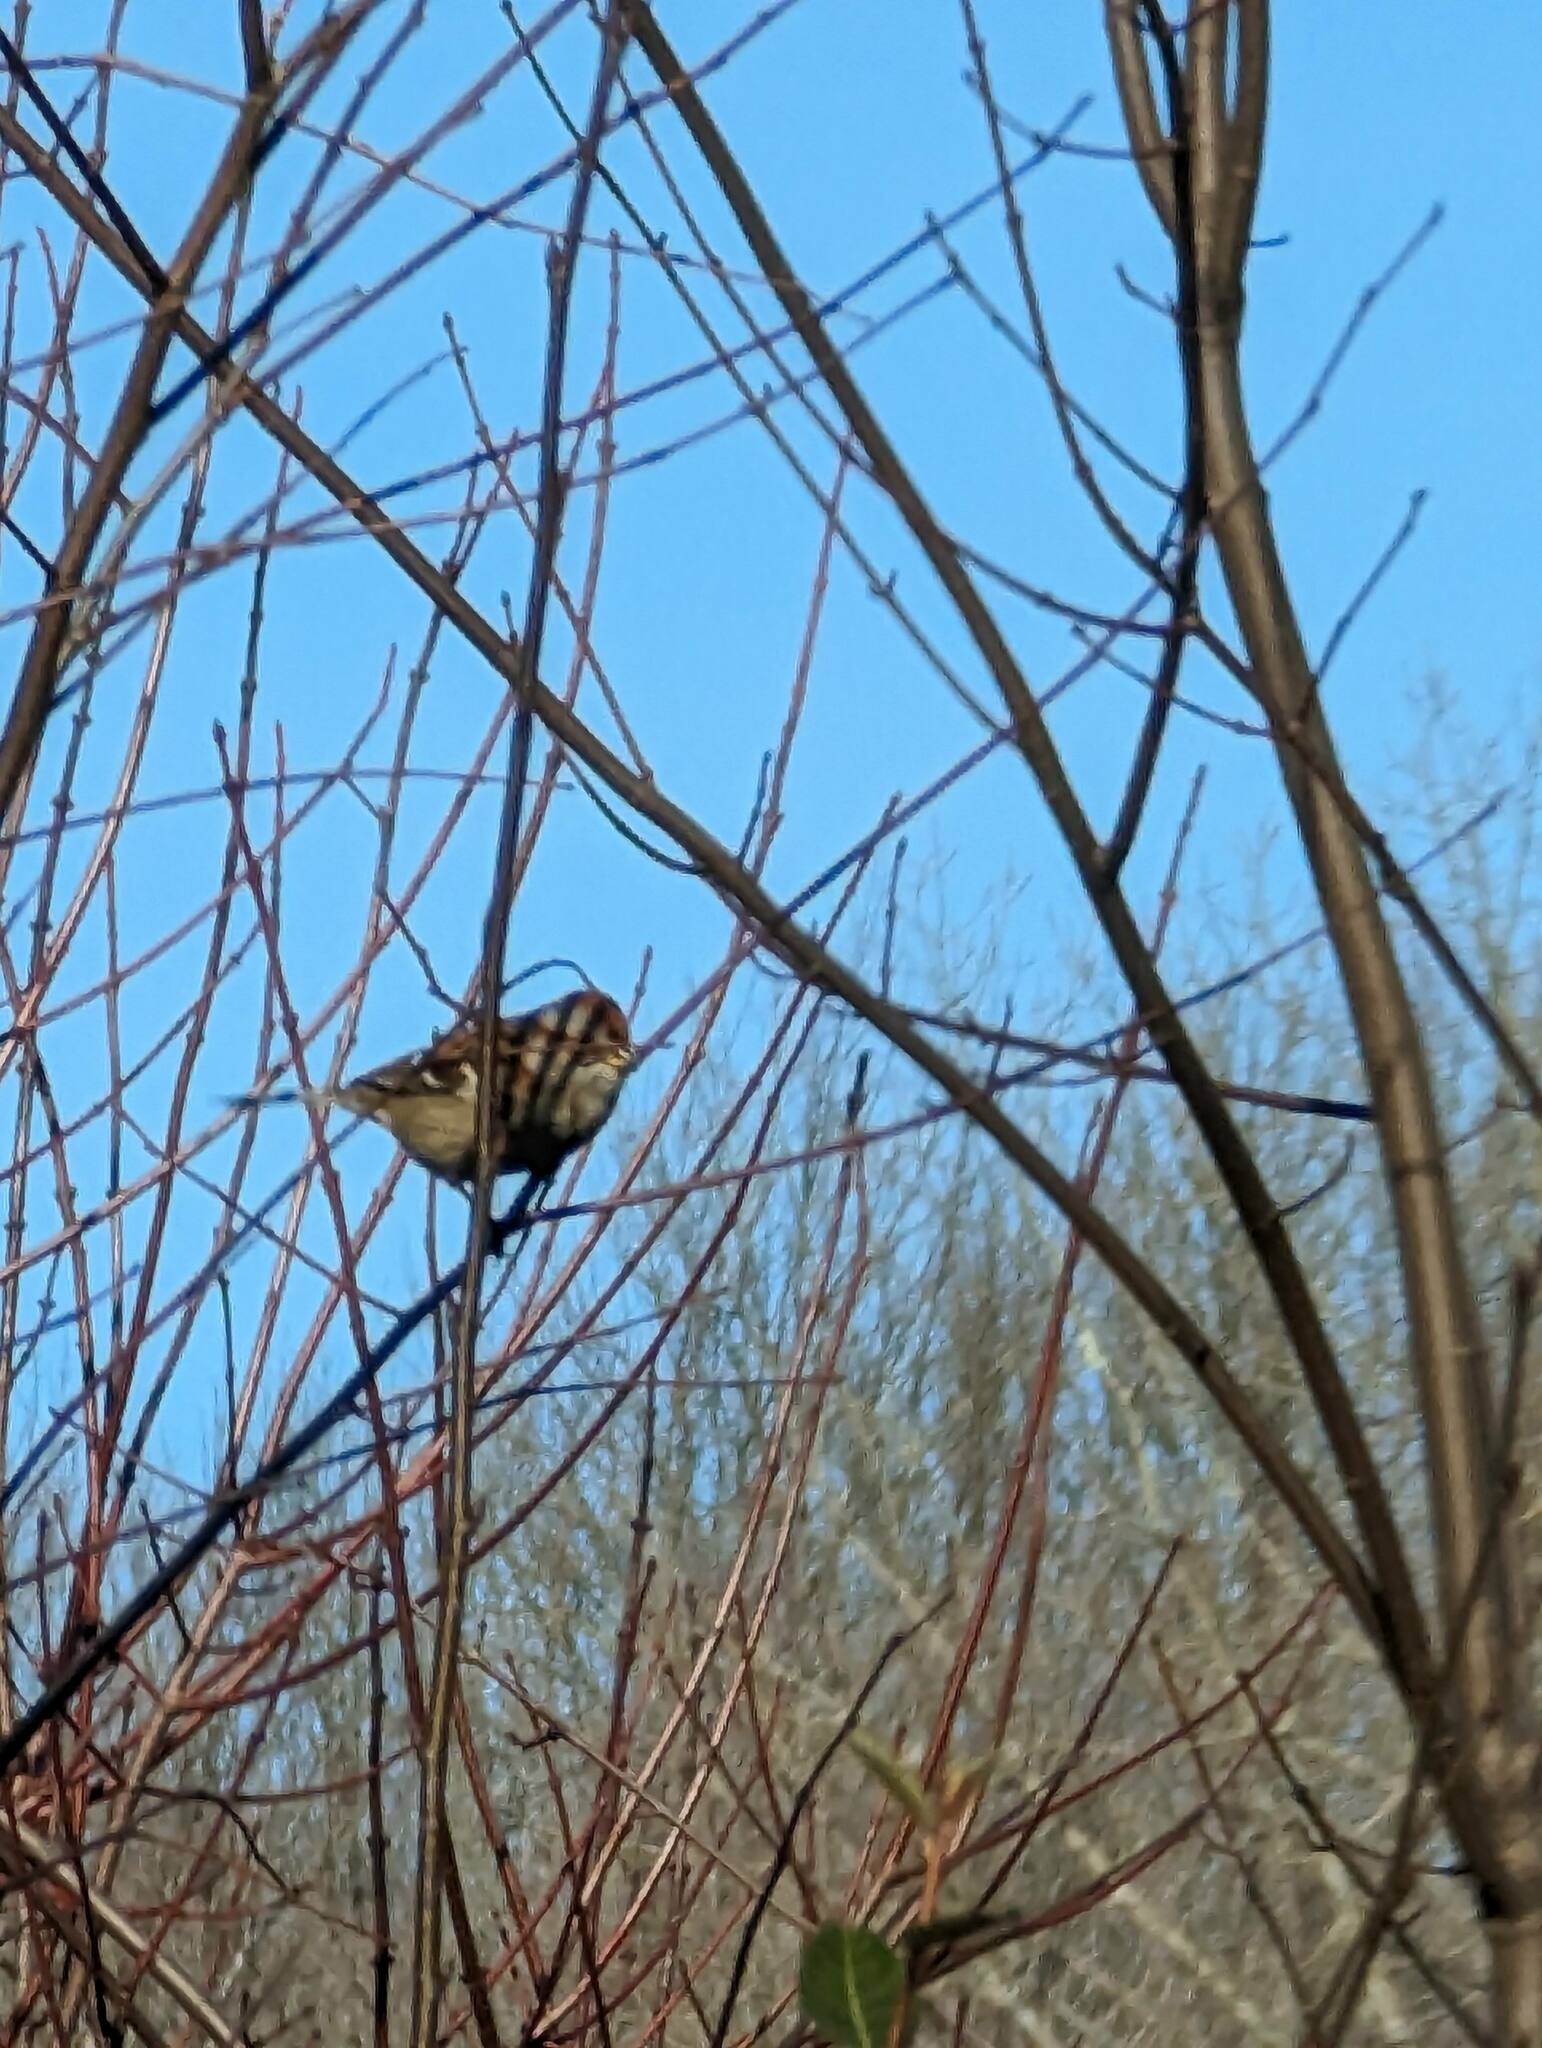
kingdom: Animalia
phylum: Chordata
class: Aves
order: Passeriformes
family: Passerellidae
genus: Spizelloides
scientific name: Spizelloides arborea
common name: American tree sparrow
